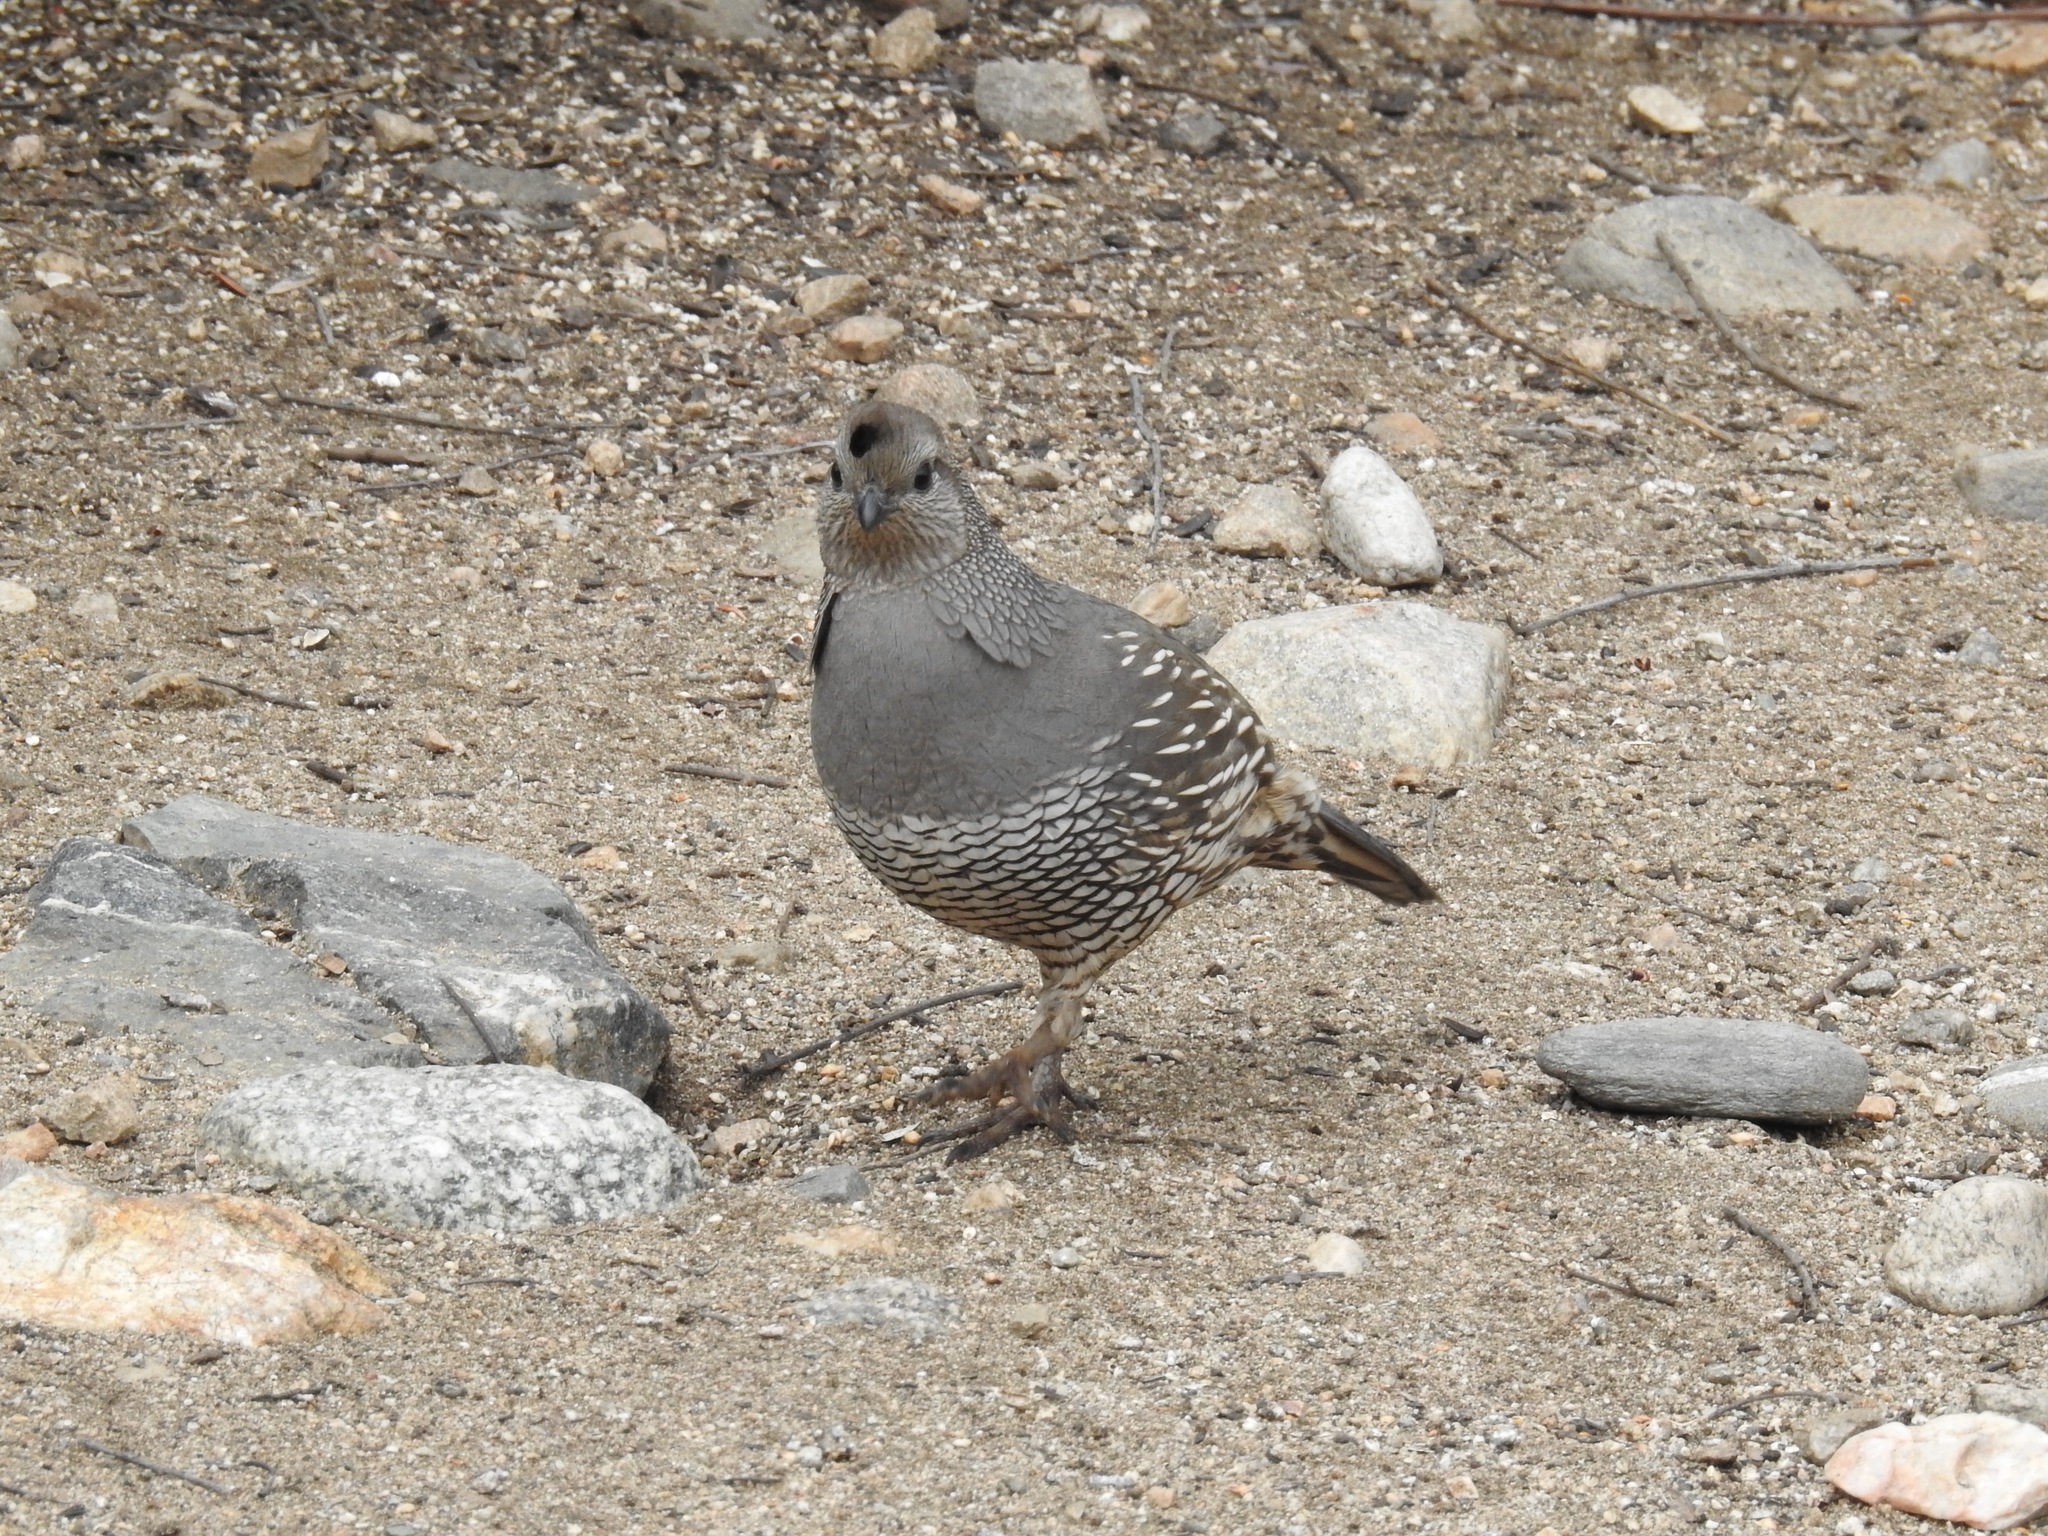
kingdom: Animalia
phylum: Chordata
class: Aves
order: Galliformes
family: Odontophoridae
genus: Callipepla
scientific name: Callipepla californica
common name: California quail
